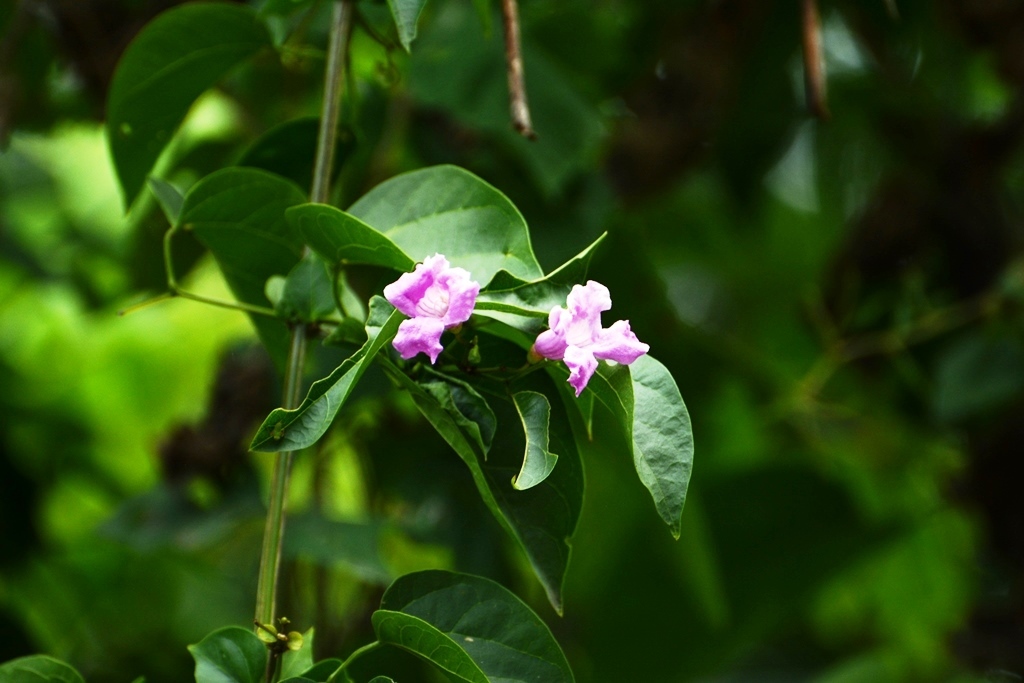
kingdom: Plantae
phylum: Tracheophyta
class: Magnoliopsida
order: Lamiales
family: Bignoniaceae
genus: Tanaecium
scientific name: Tanaecium dichotomum
